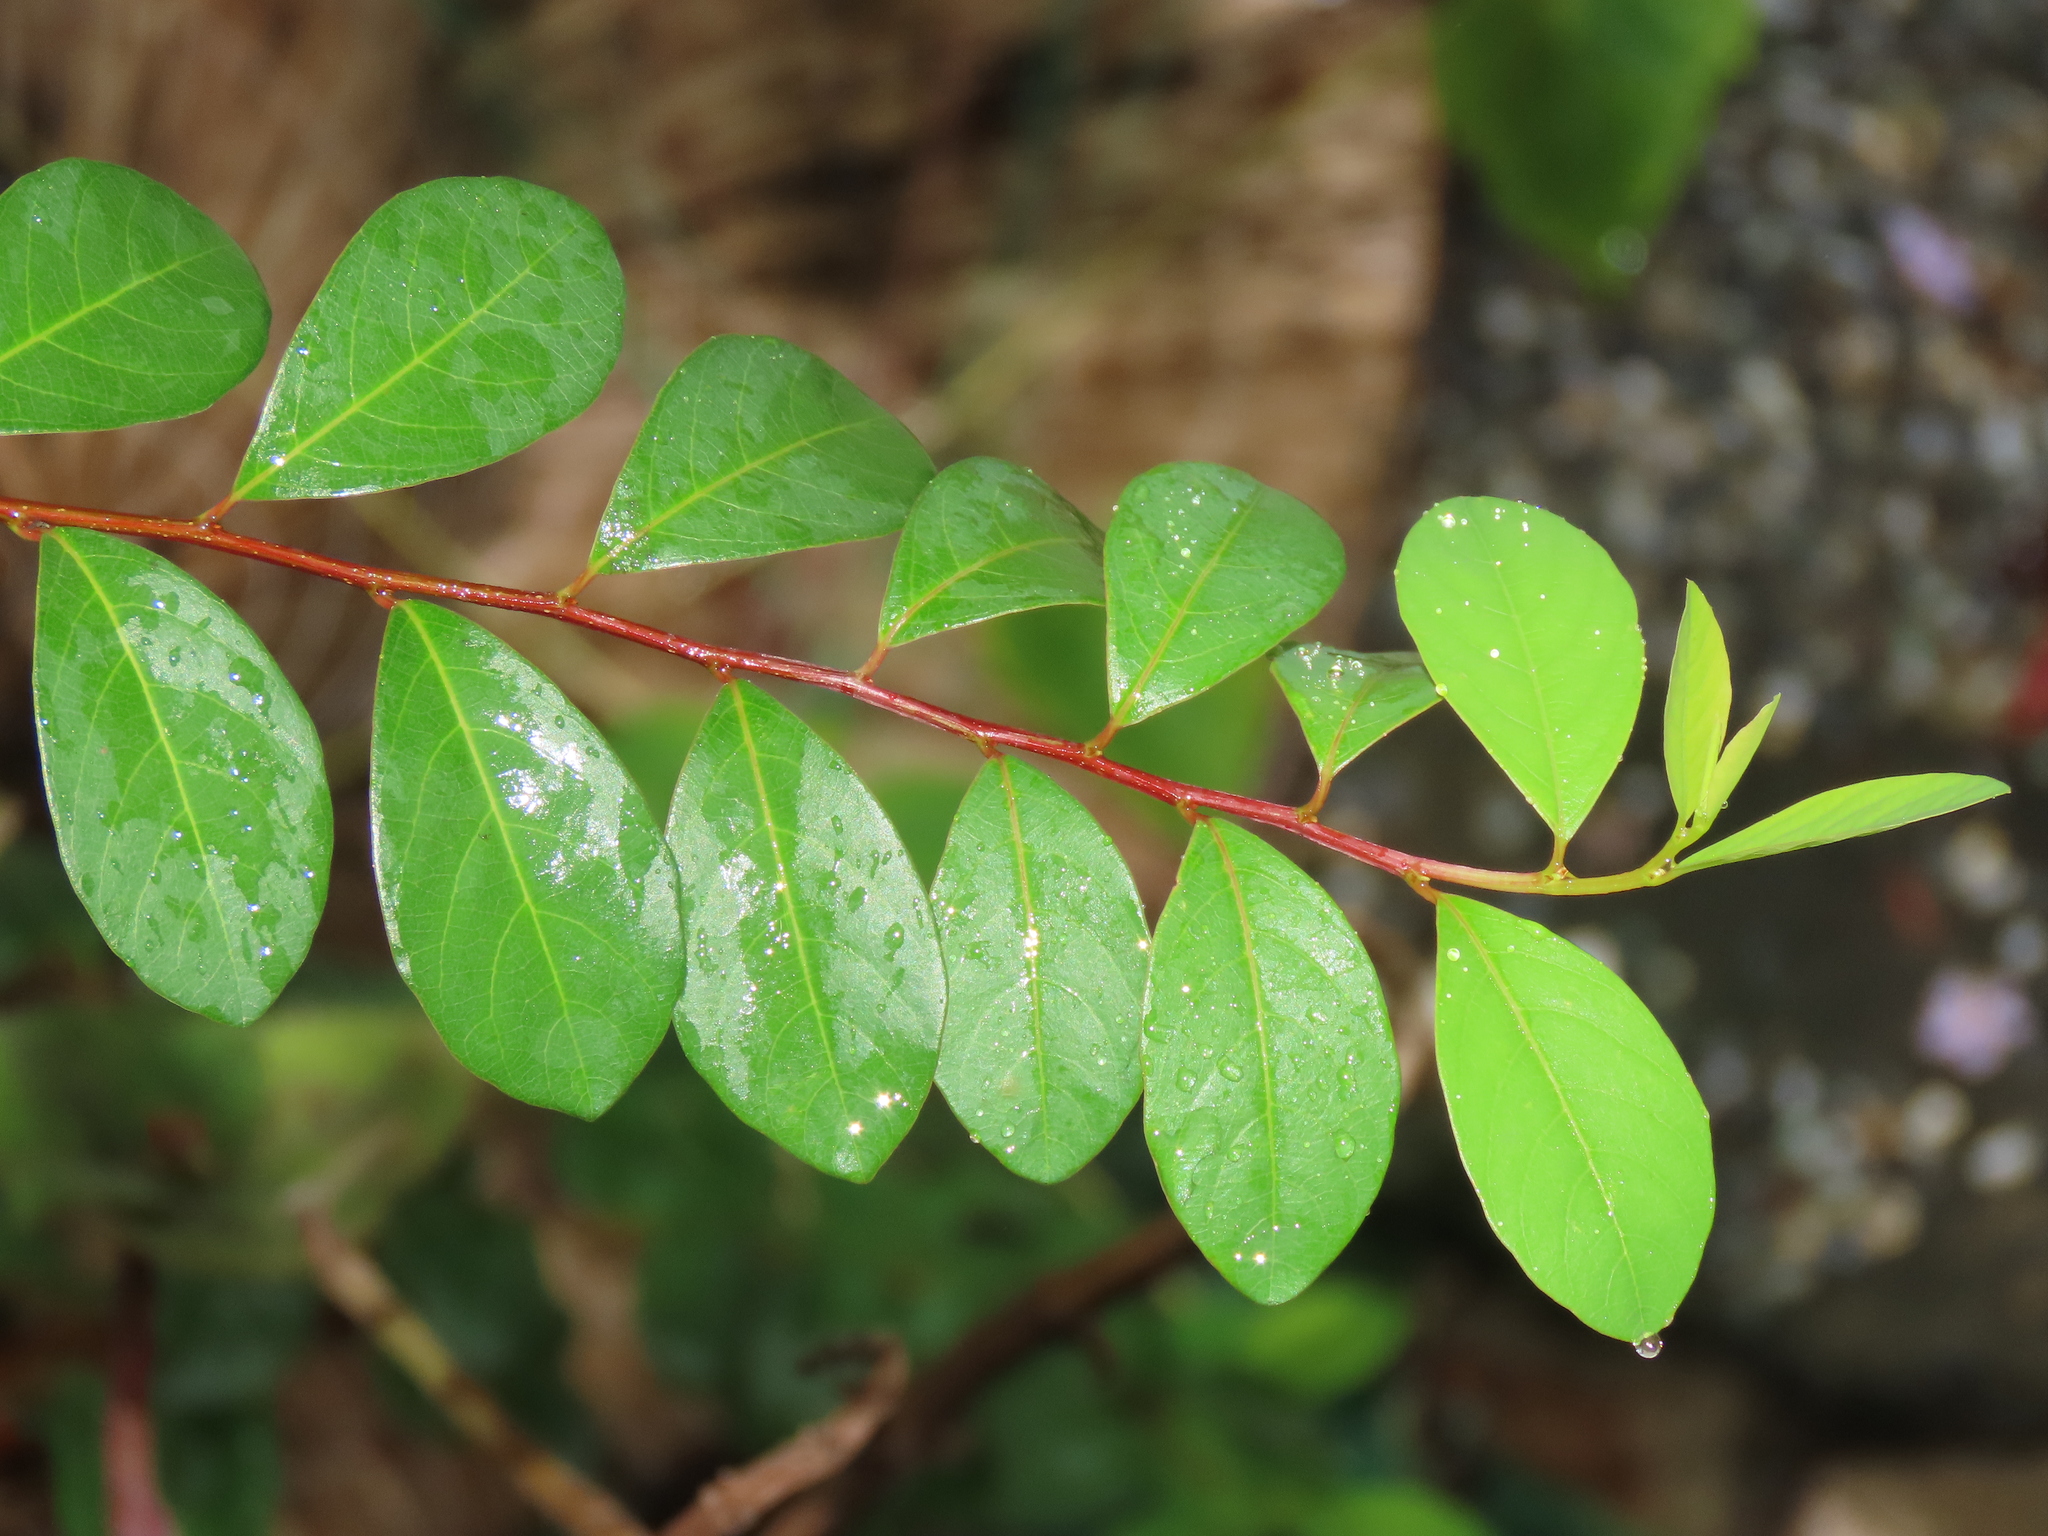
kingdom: Plantae
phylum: Tracheophyta
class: Magnoliopsida
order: Malpighiales
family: Phyllanthaceae
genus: Flueggea
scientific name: Flueggea virosa
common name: Common bushweed
